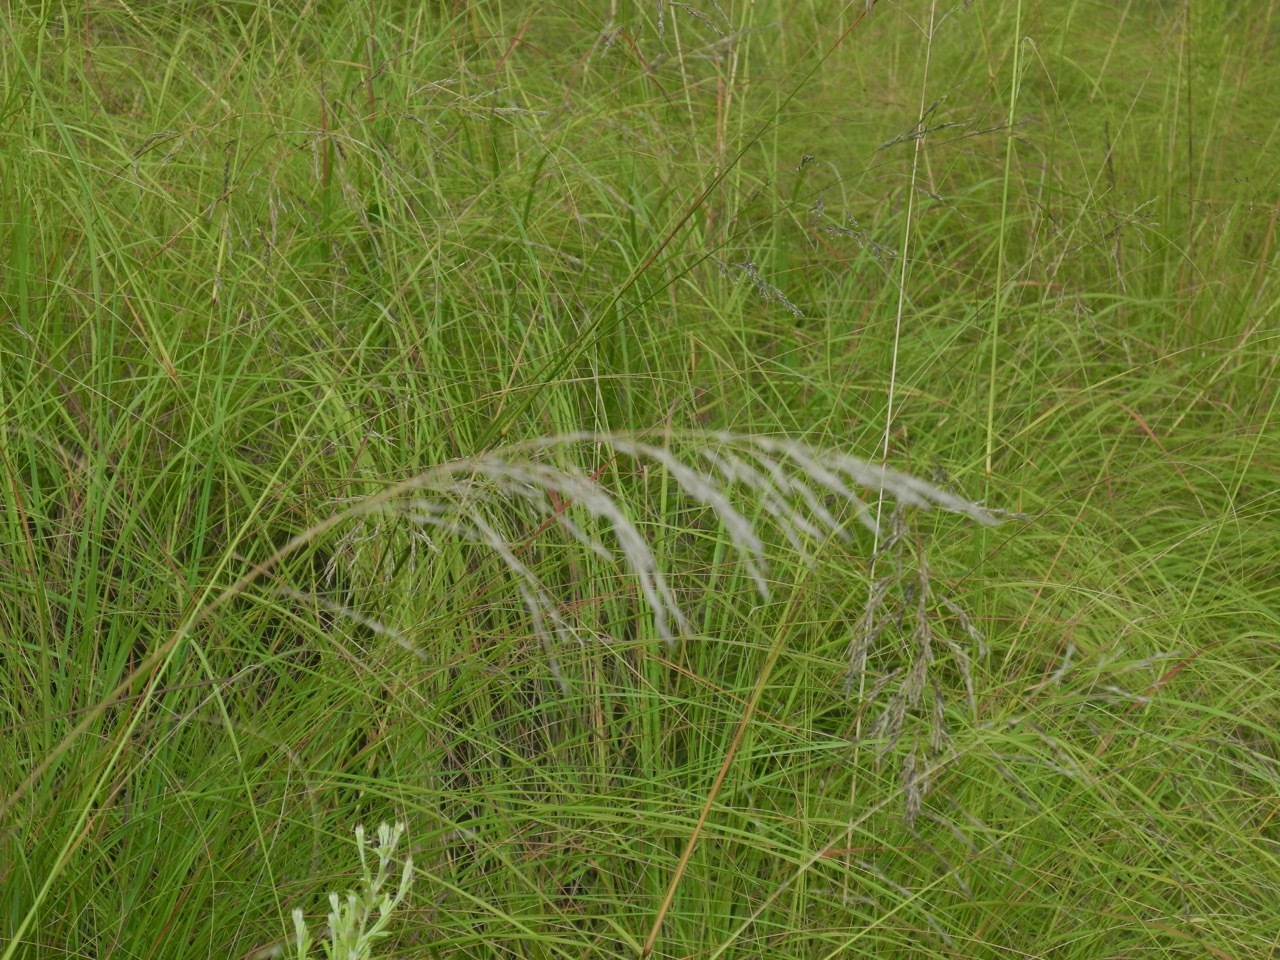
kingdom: Plantae
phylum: Tracheophyta
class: Liliopsida
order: Poales
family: Poaceae
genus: Eragrostis
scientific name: Eragrostis curvula
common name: African love-grass
